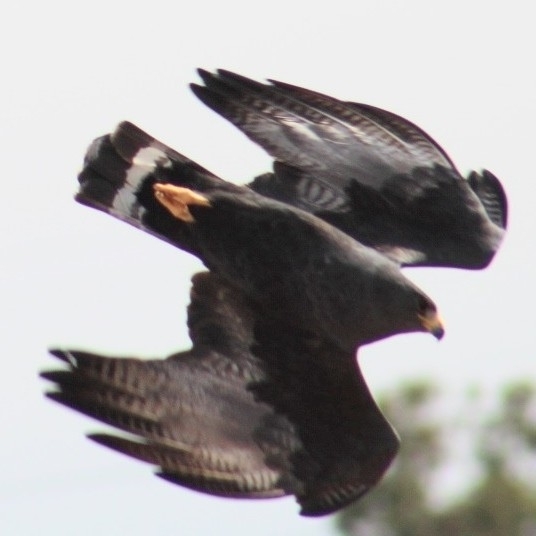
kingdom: Animalia
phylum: Chordata
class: Aves
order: Accipitriformes
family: Accipitridae
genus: Buteo
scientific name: Buteo albonotatus
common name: Zone-tailed hawk
